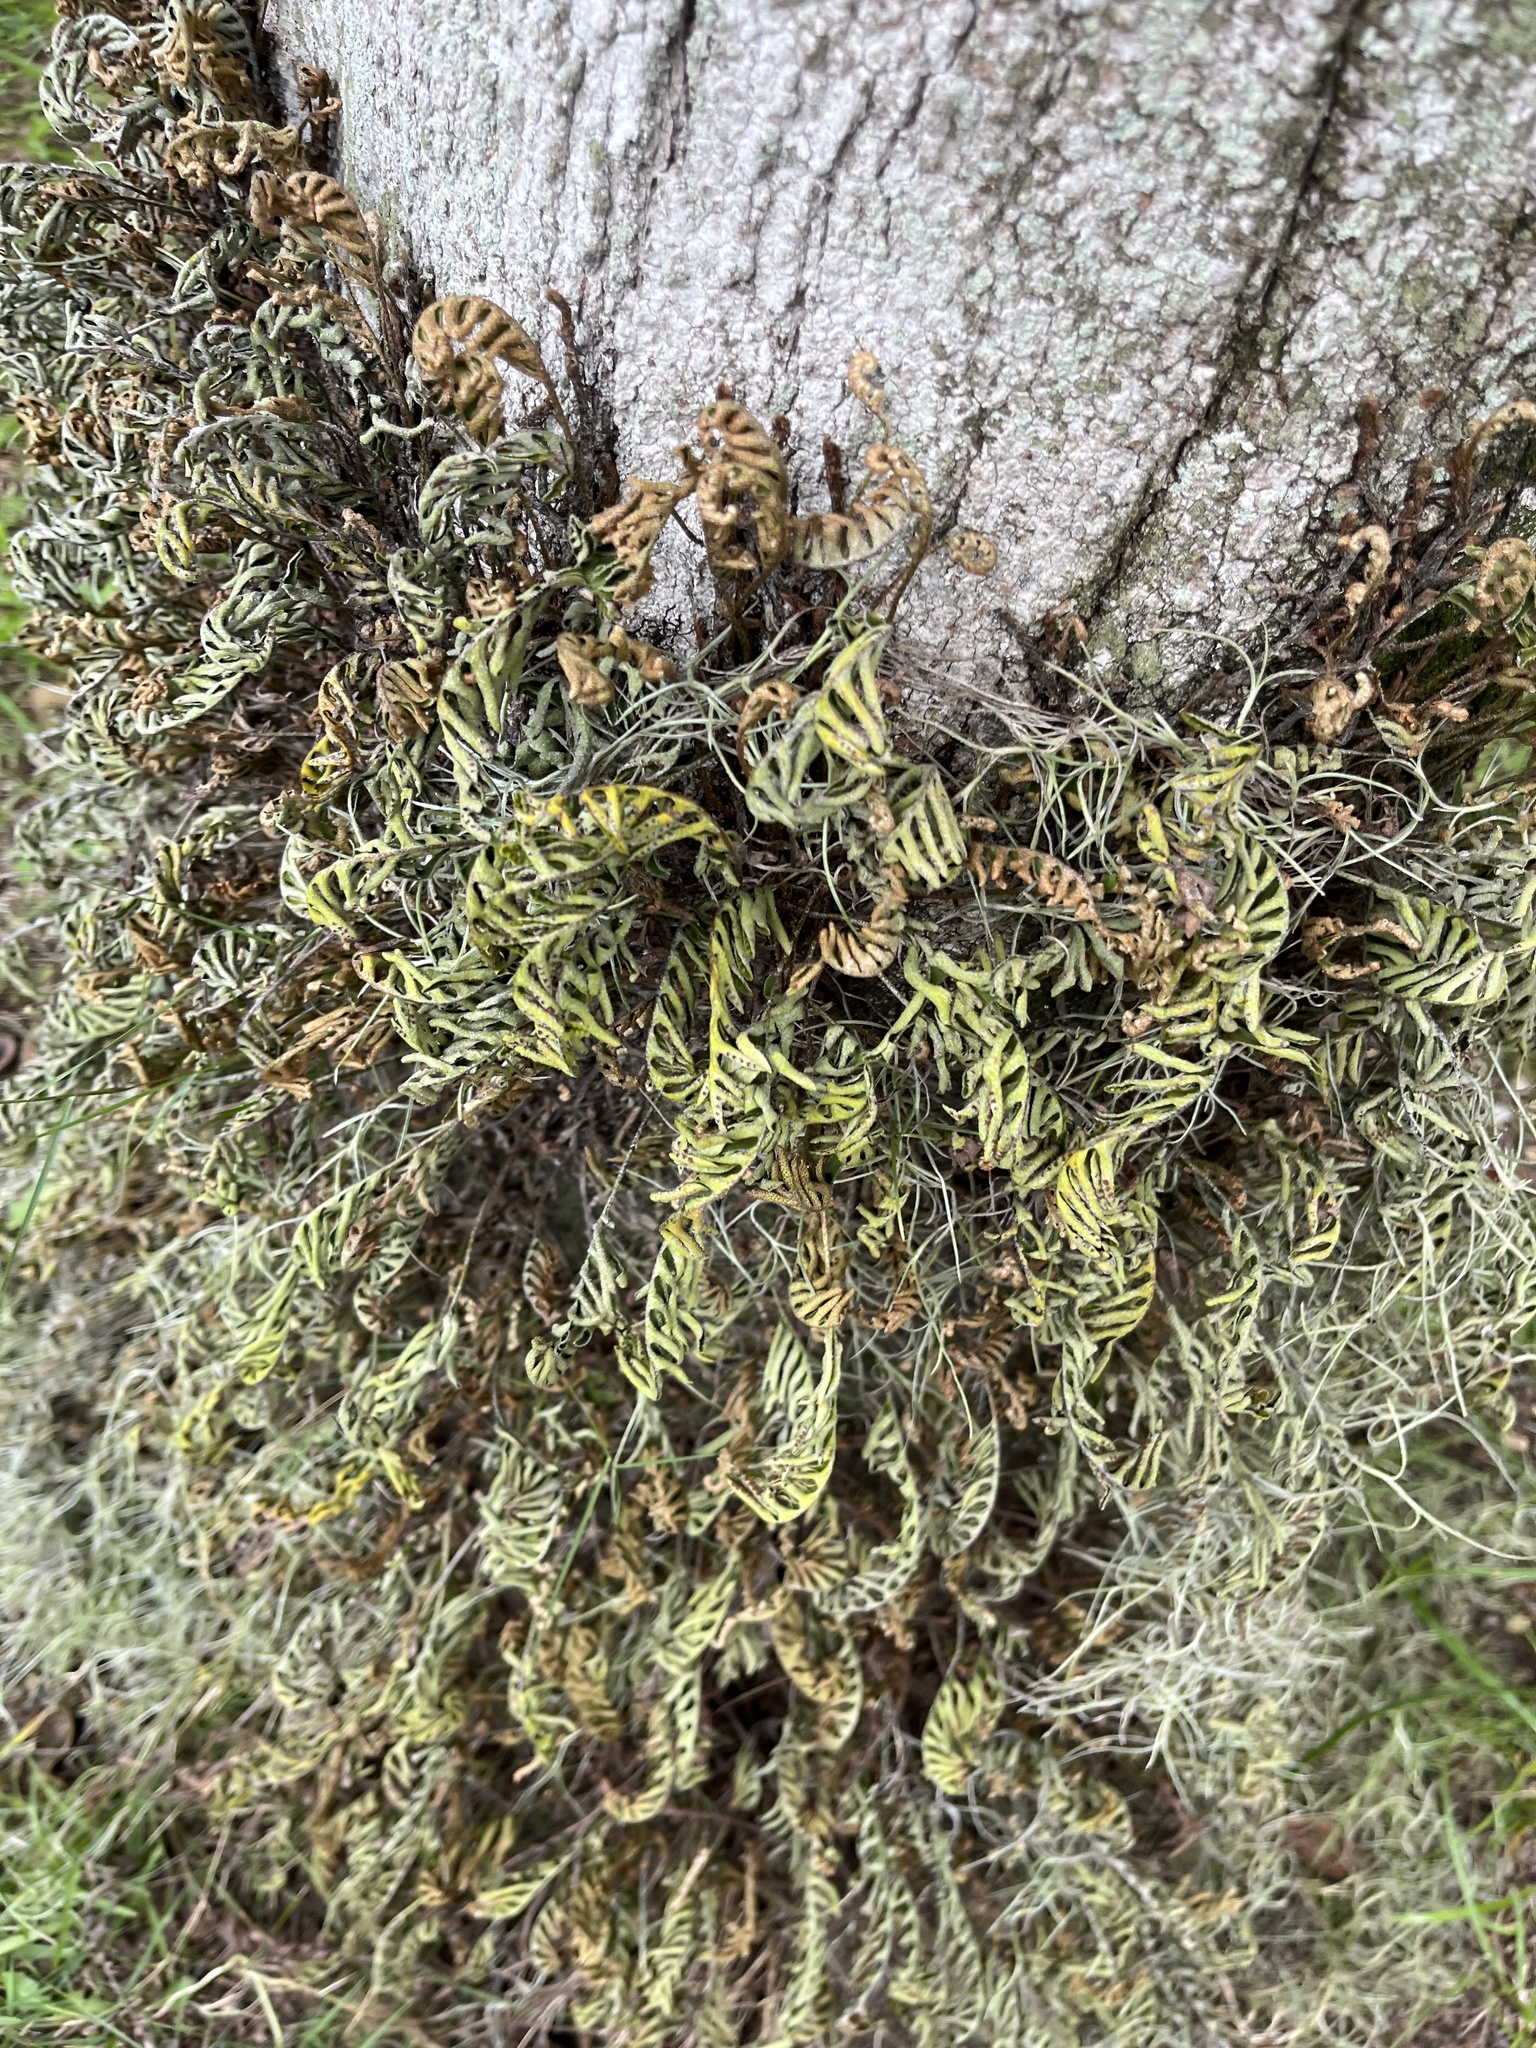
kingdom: Plantae
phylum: Tracheophyta
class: Polypodiopsida
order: Polypodiales
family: Polypodiaceae
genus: Pleopeltis
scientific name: Pleopeltis michauxiana
